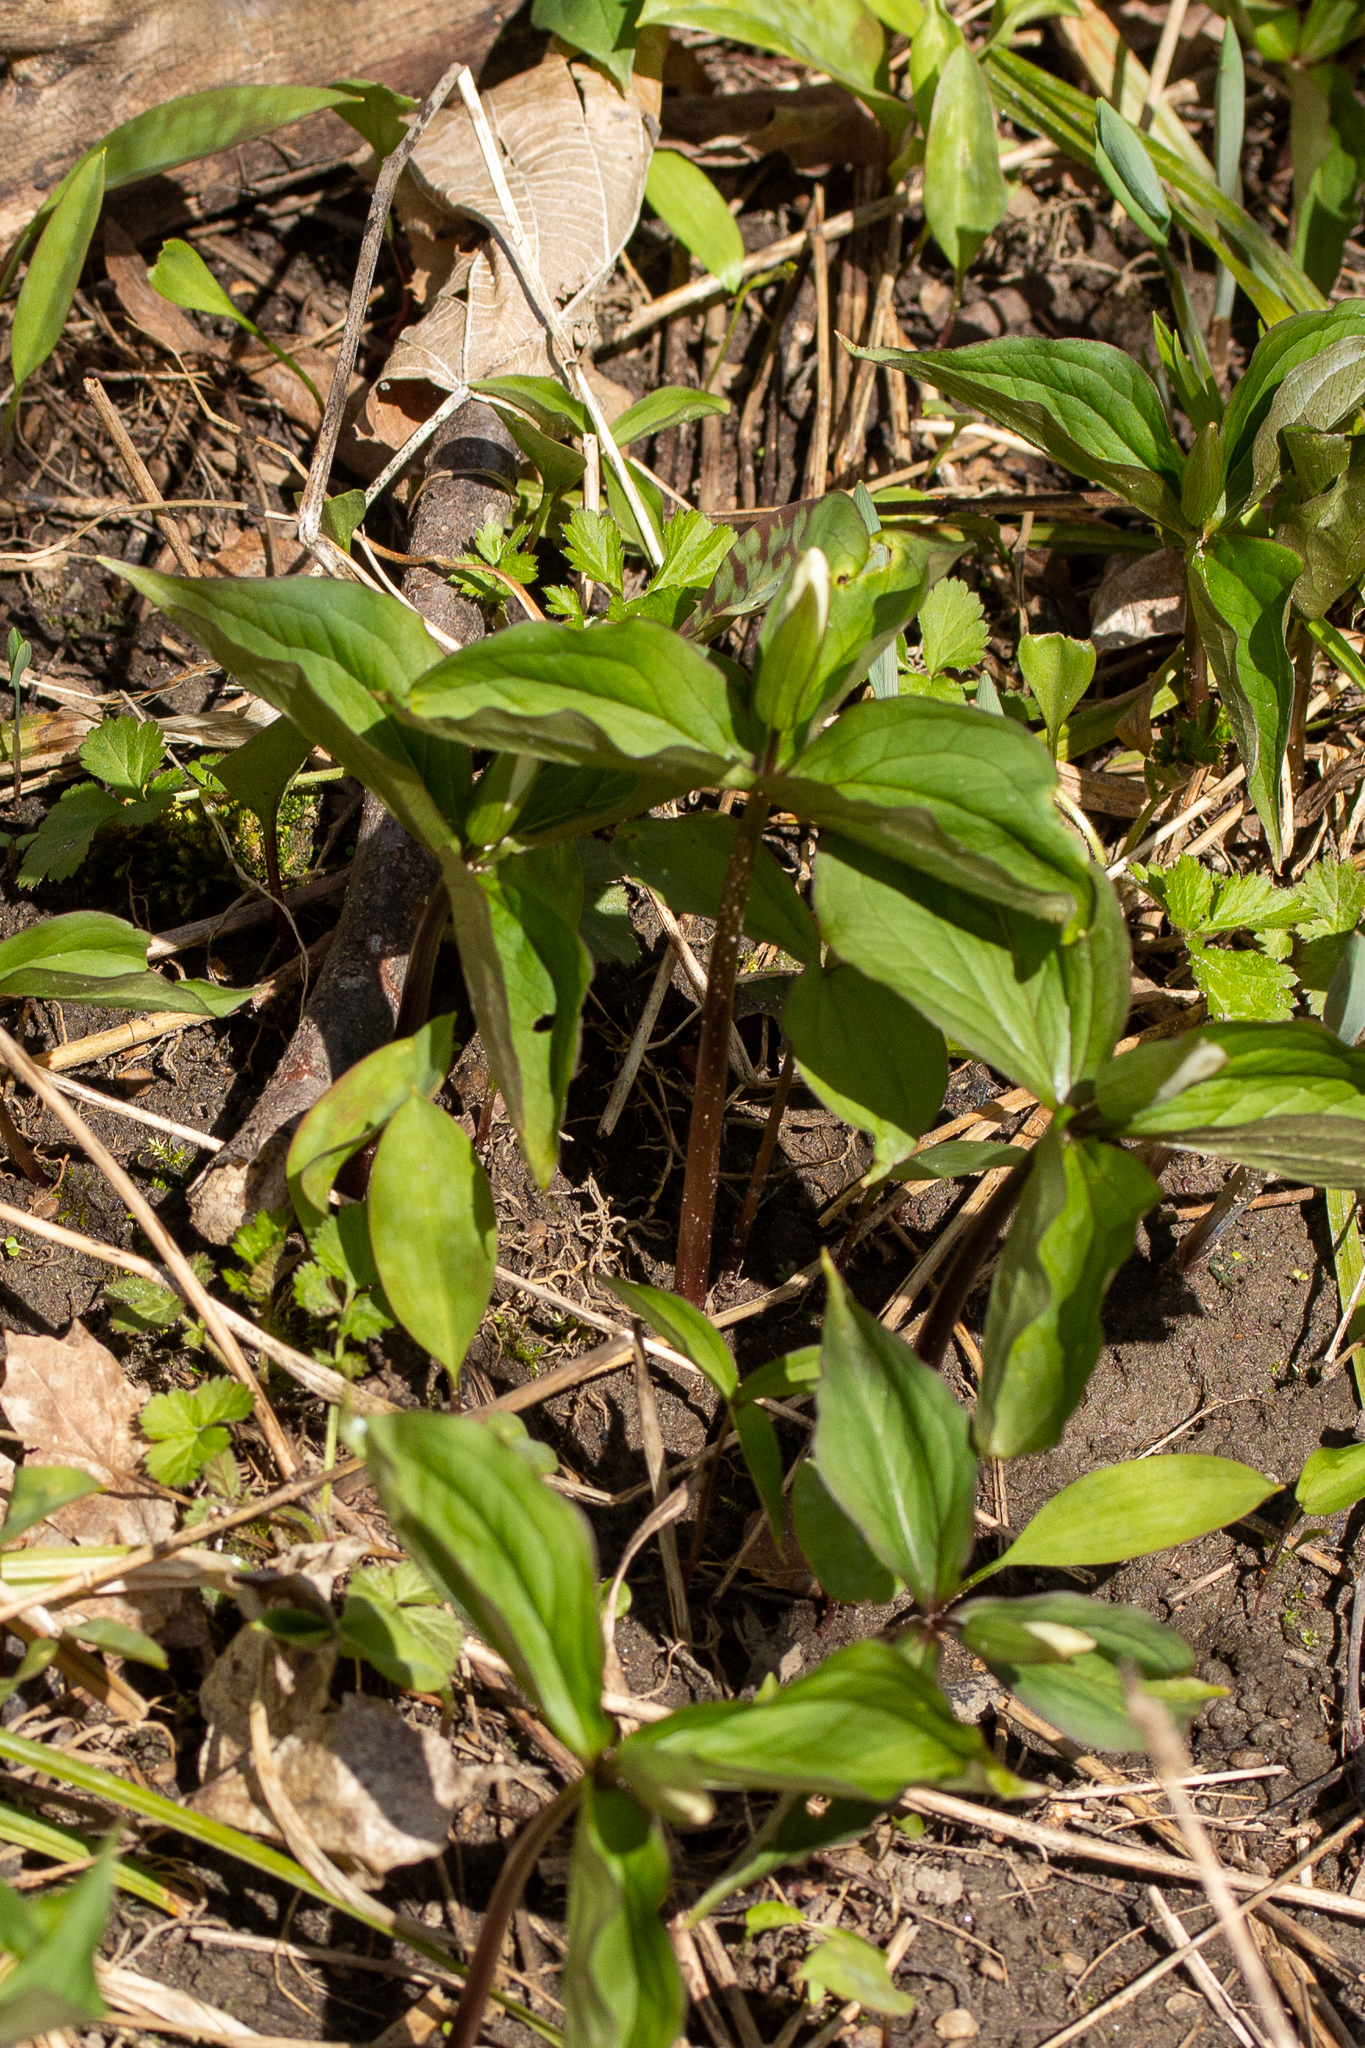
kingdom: Plantae
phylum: Tracheophyta
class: Liliopsida
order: Liliales
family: Melanthiaceae
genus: Trillium
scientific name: Trillium grandiflorum
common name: Great white trillium
